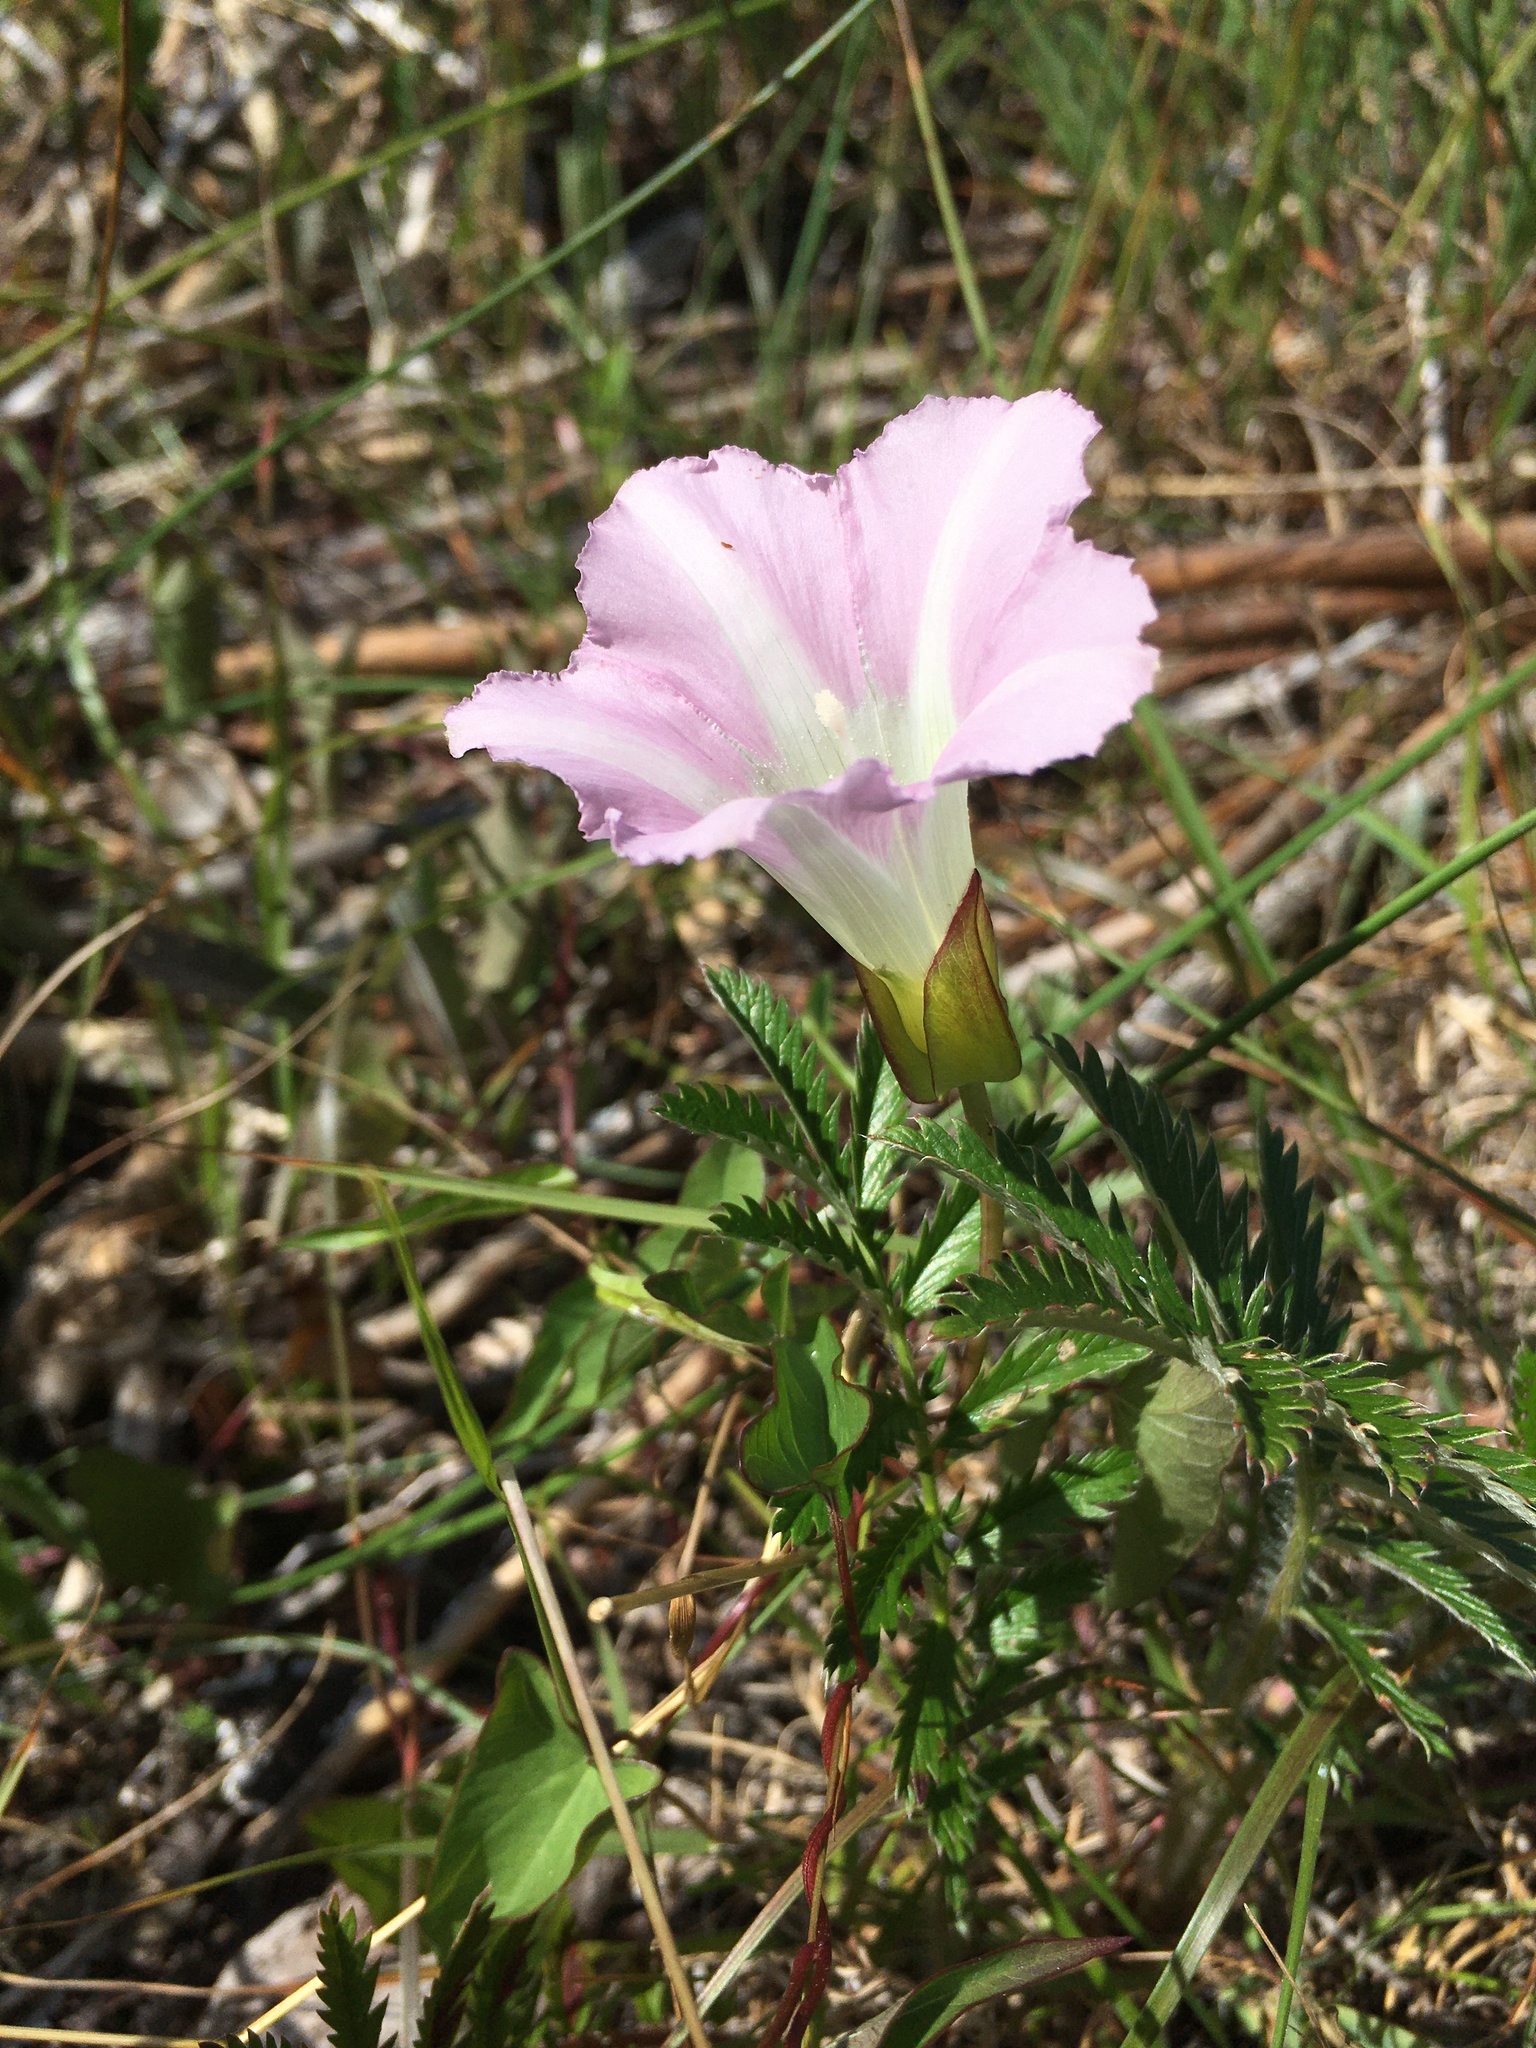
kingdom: Plantae
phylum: Tracheophyta
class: Magnoliopsida
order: Solanales
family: Convolvulaceae
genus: Calystegia
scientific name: Calystegia sepium
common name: Hedge bindweed
